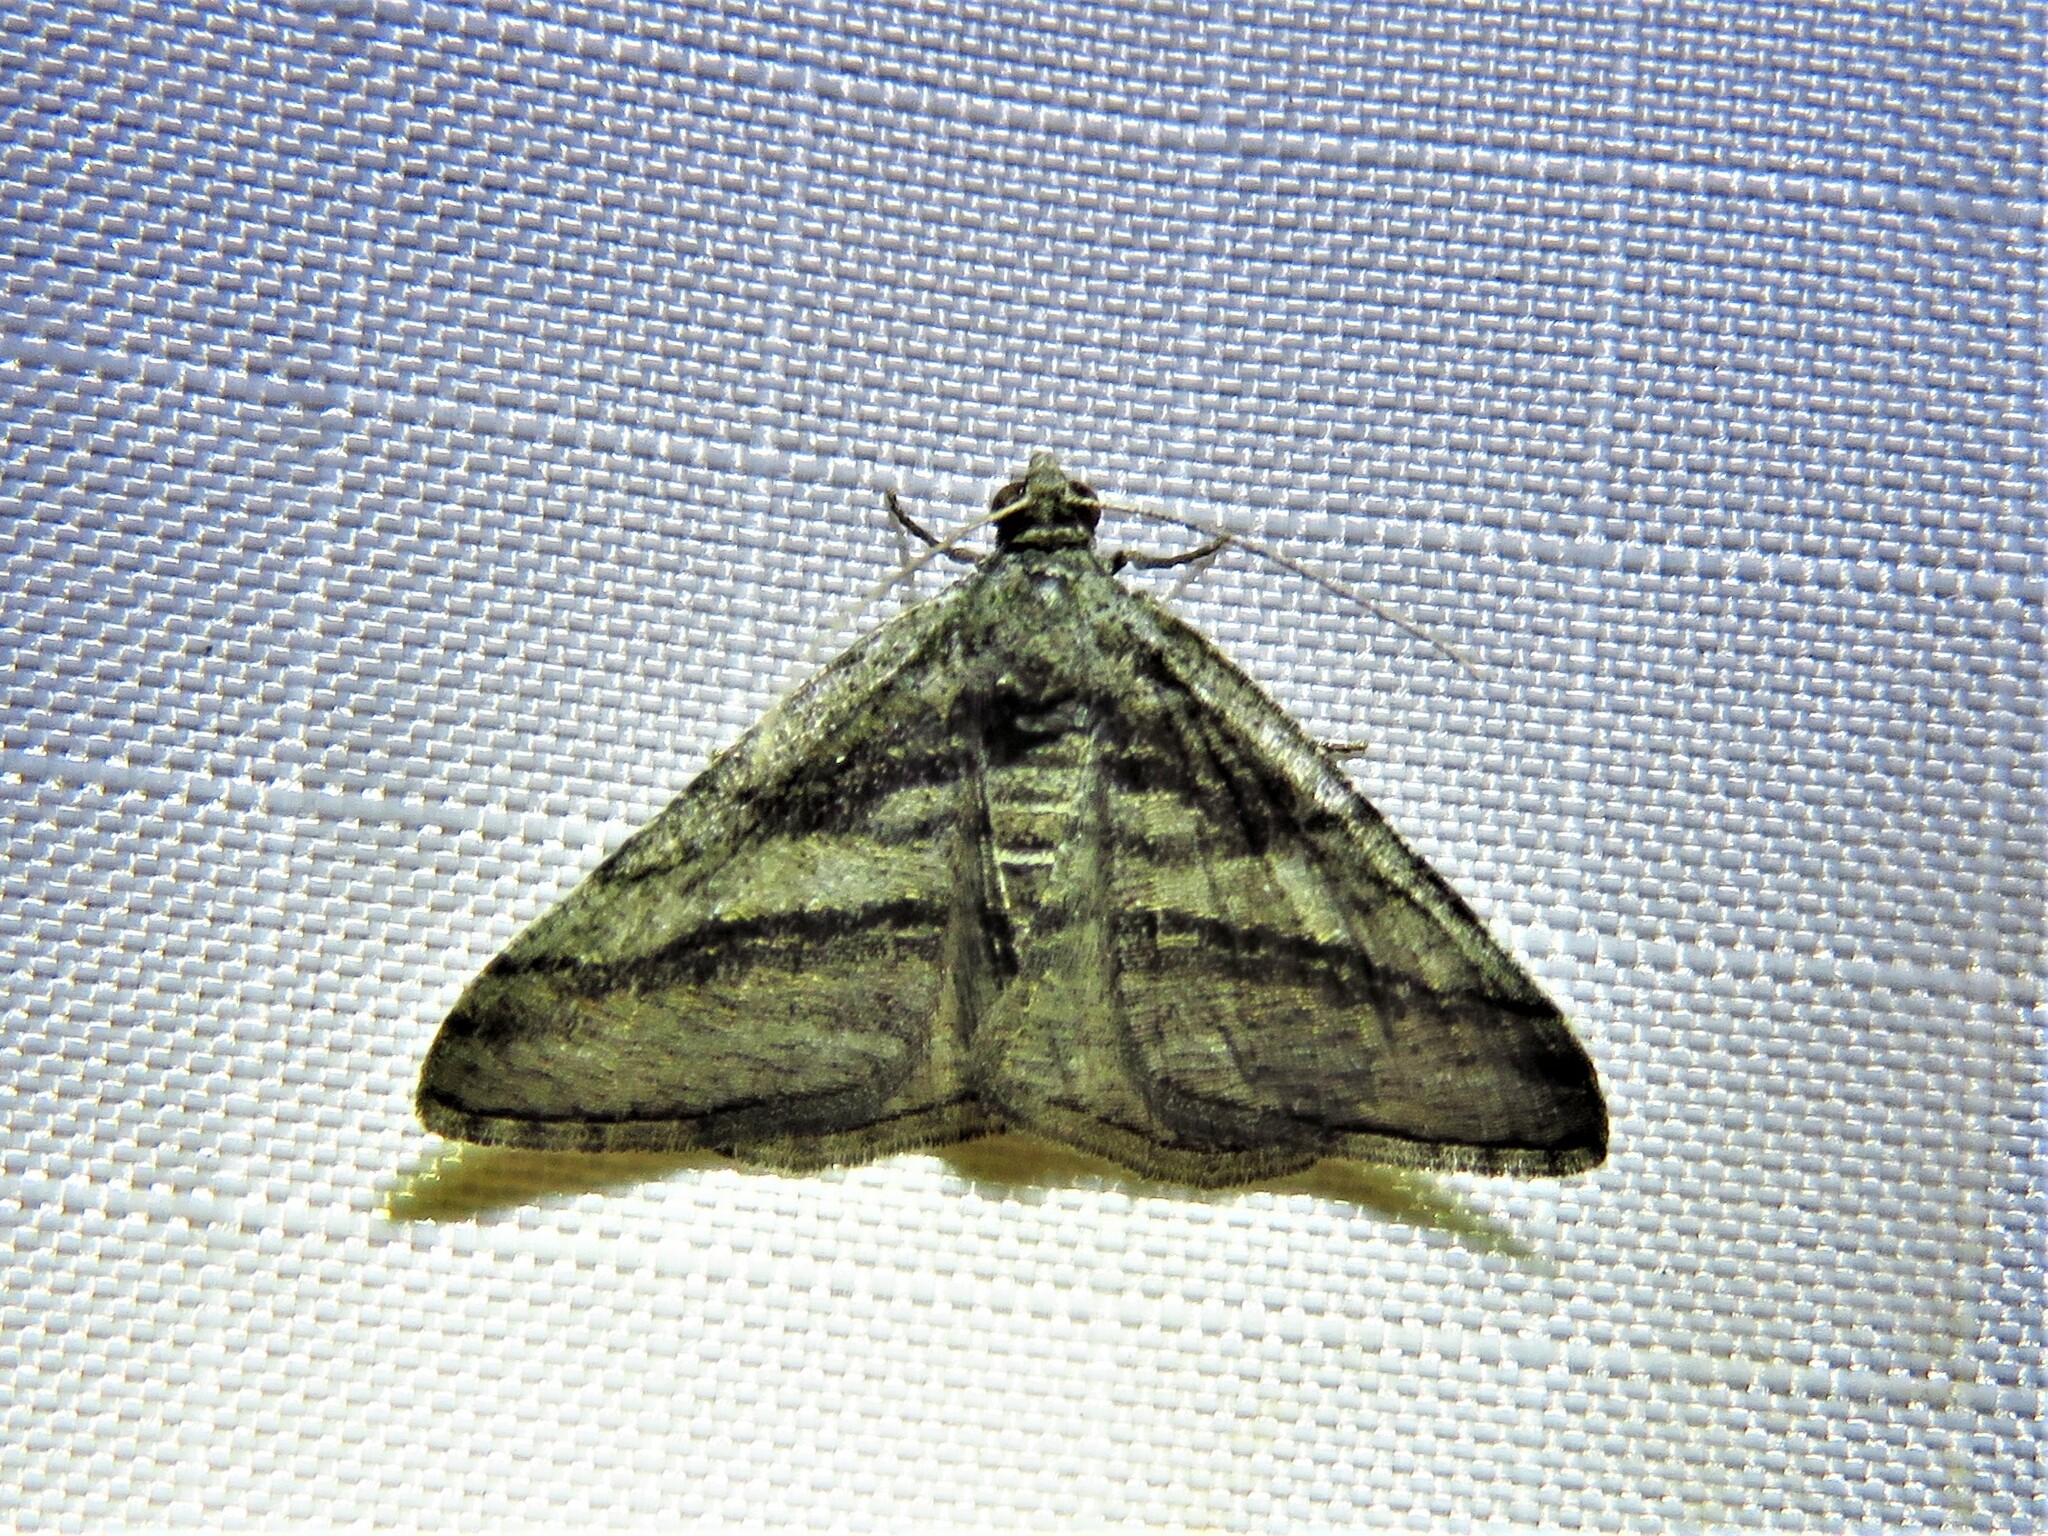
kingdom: Animalia
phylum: Arthropoda
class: Insecta
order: Lepidoptera
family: Geometridae
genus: Digrammia
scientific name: Digrammia atrofasciata
